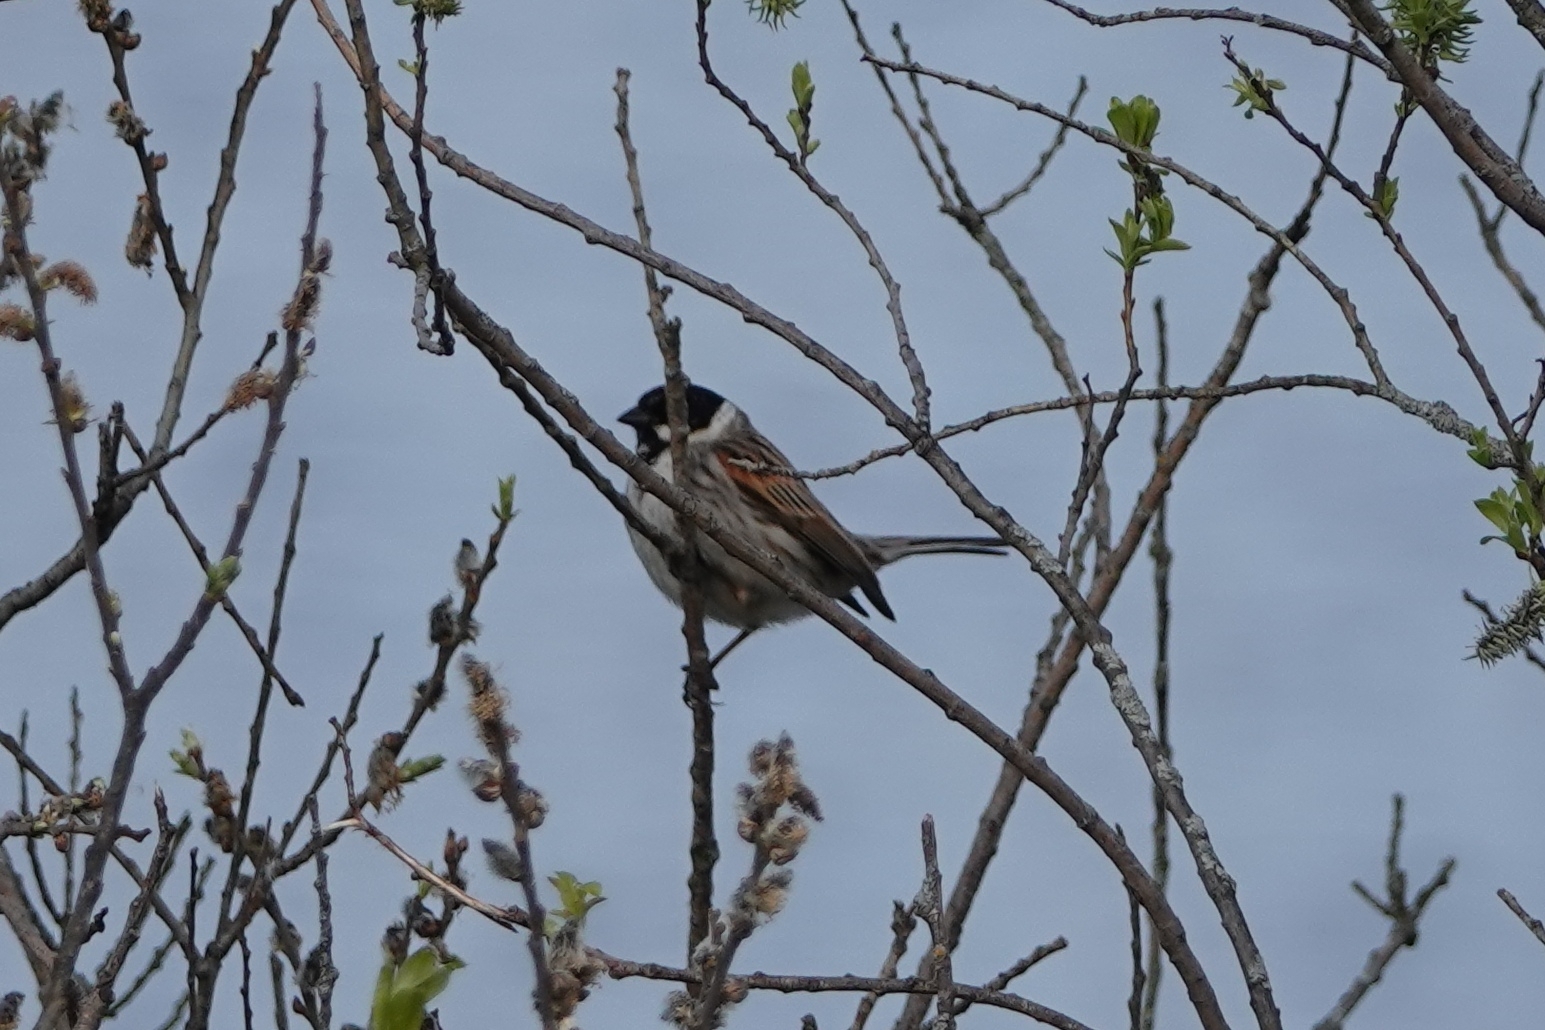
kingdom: Animalia
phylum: Chordata
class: Aves
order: Passeriformes
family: Emberizidae
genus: Emberiza
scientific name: Emberiza schoeniclus
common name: Reed bunting
